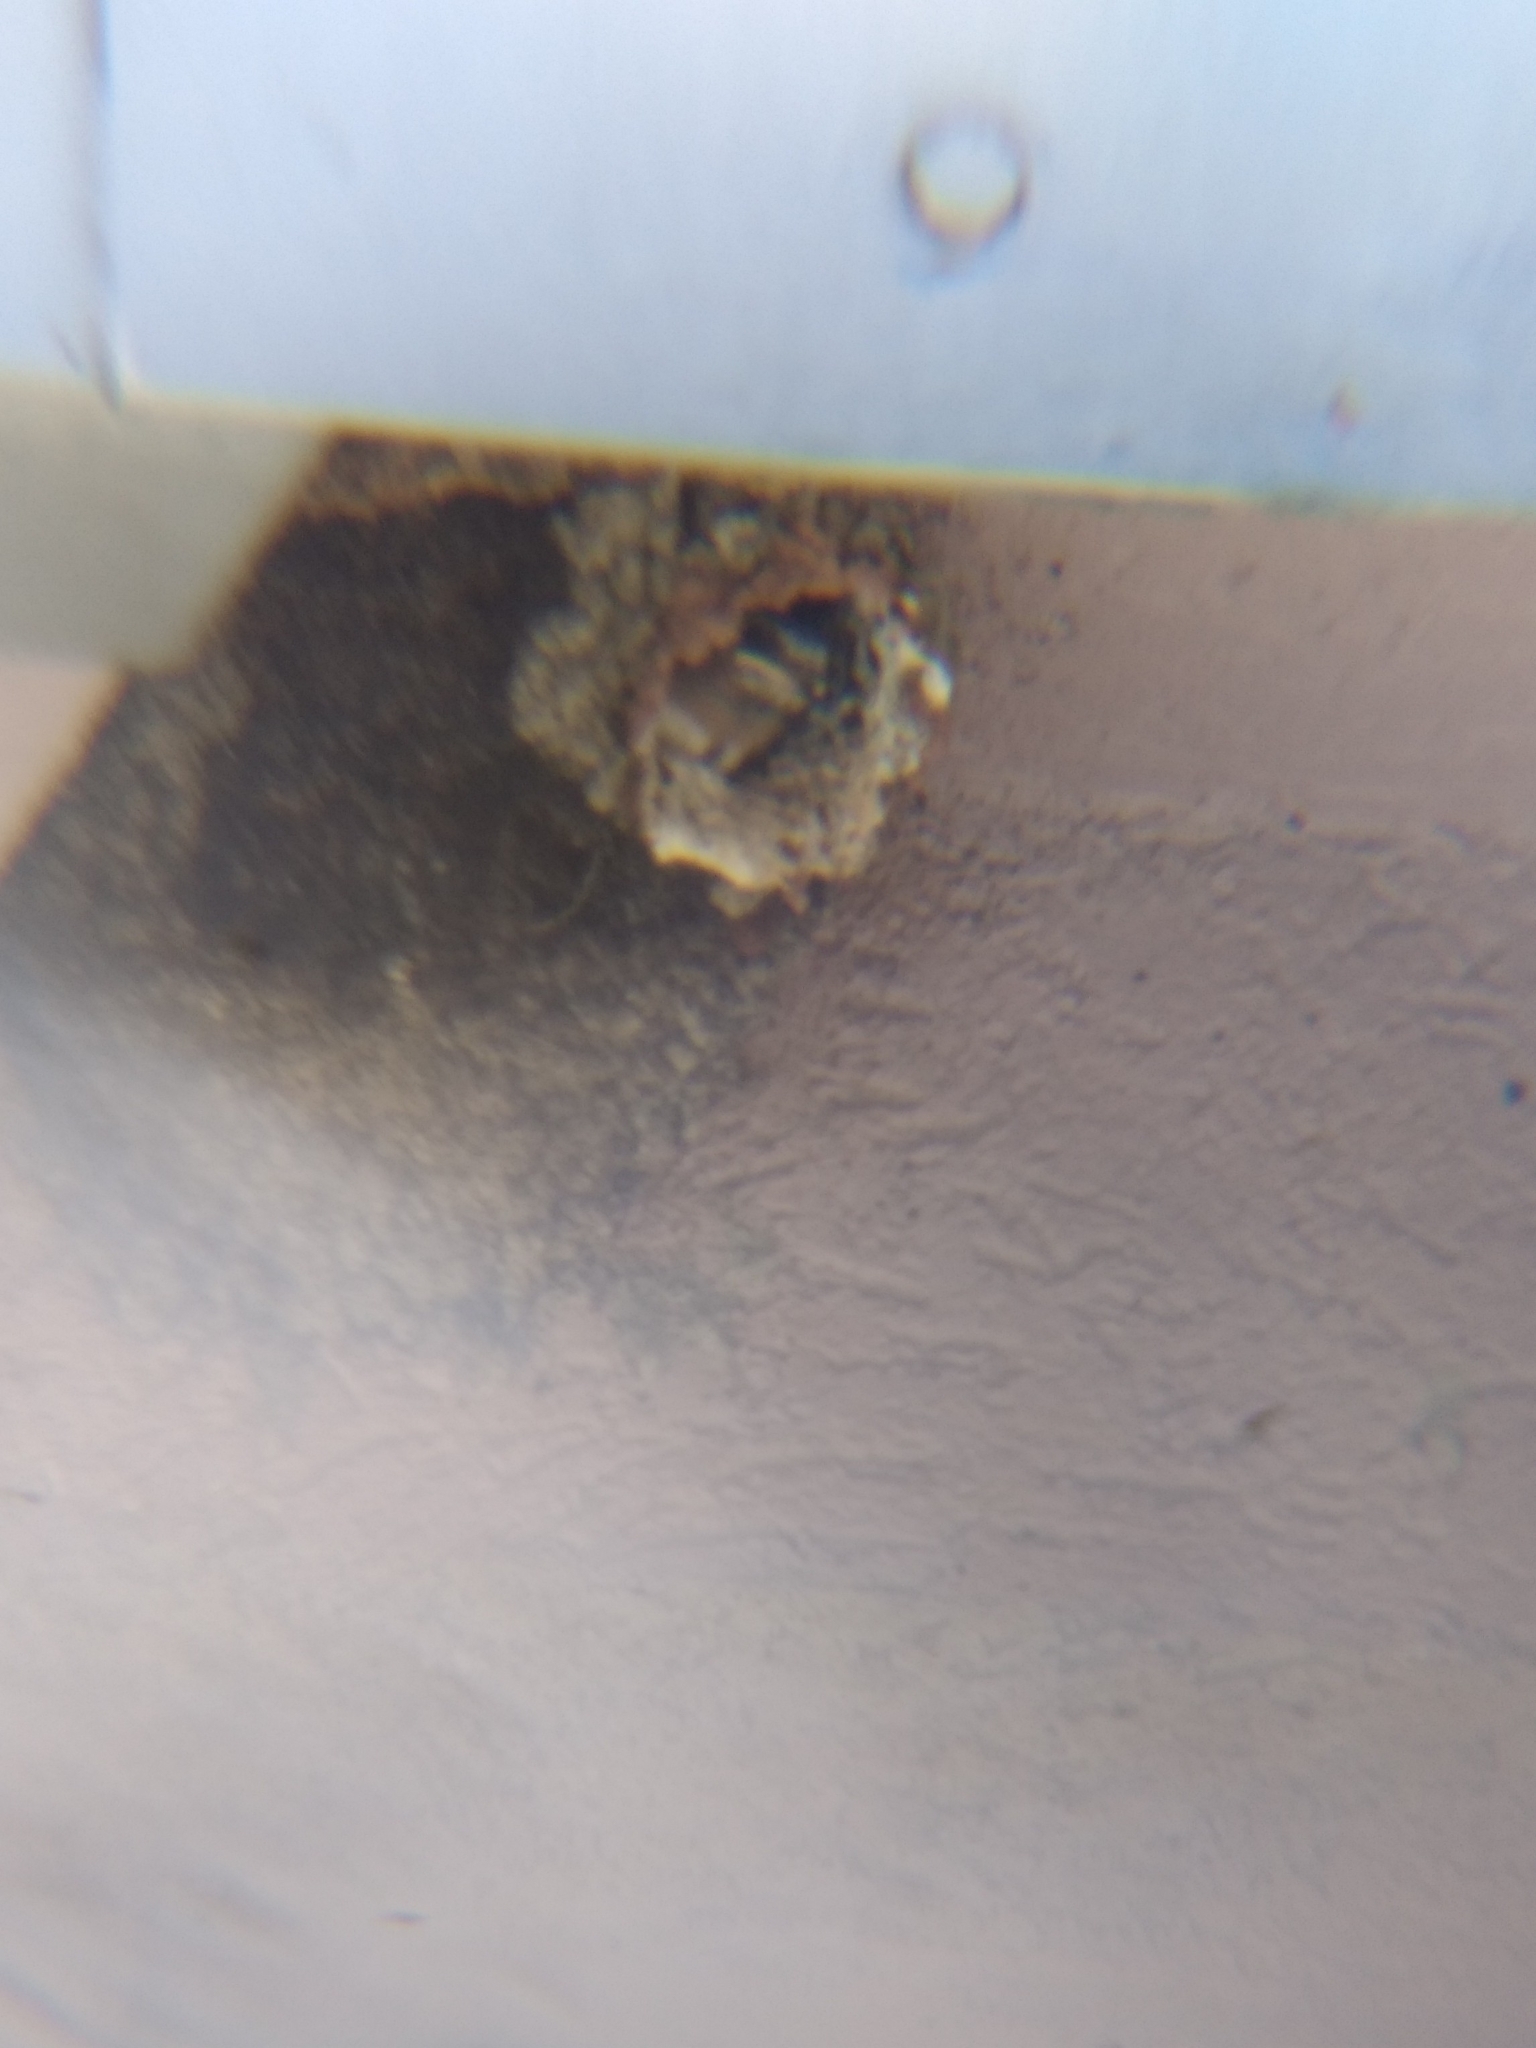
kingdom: Animalia
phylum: Chordata
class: Aves
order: Passeriformes
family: Hirundinidae
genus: Petrochelidon
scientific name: Petrochelidon pyrrhonota
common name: American cliff swallow
